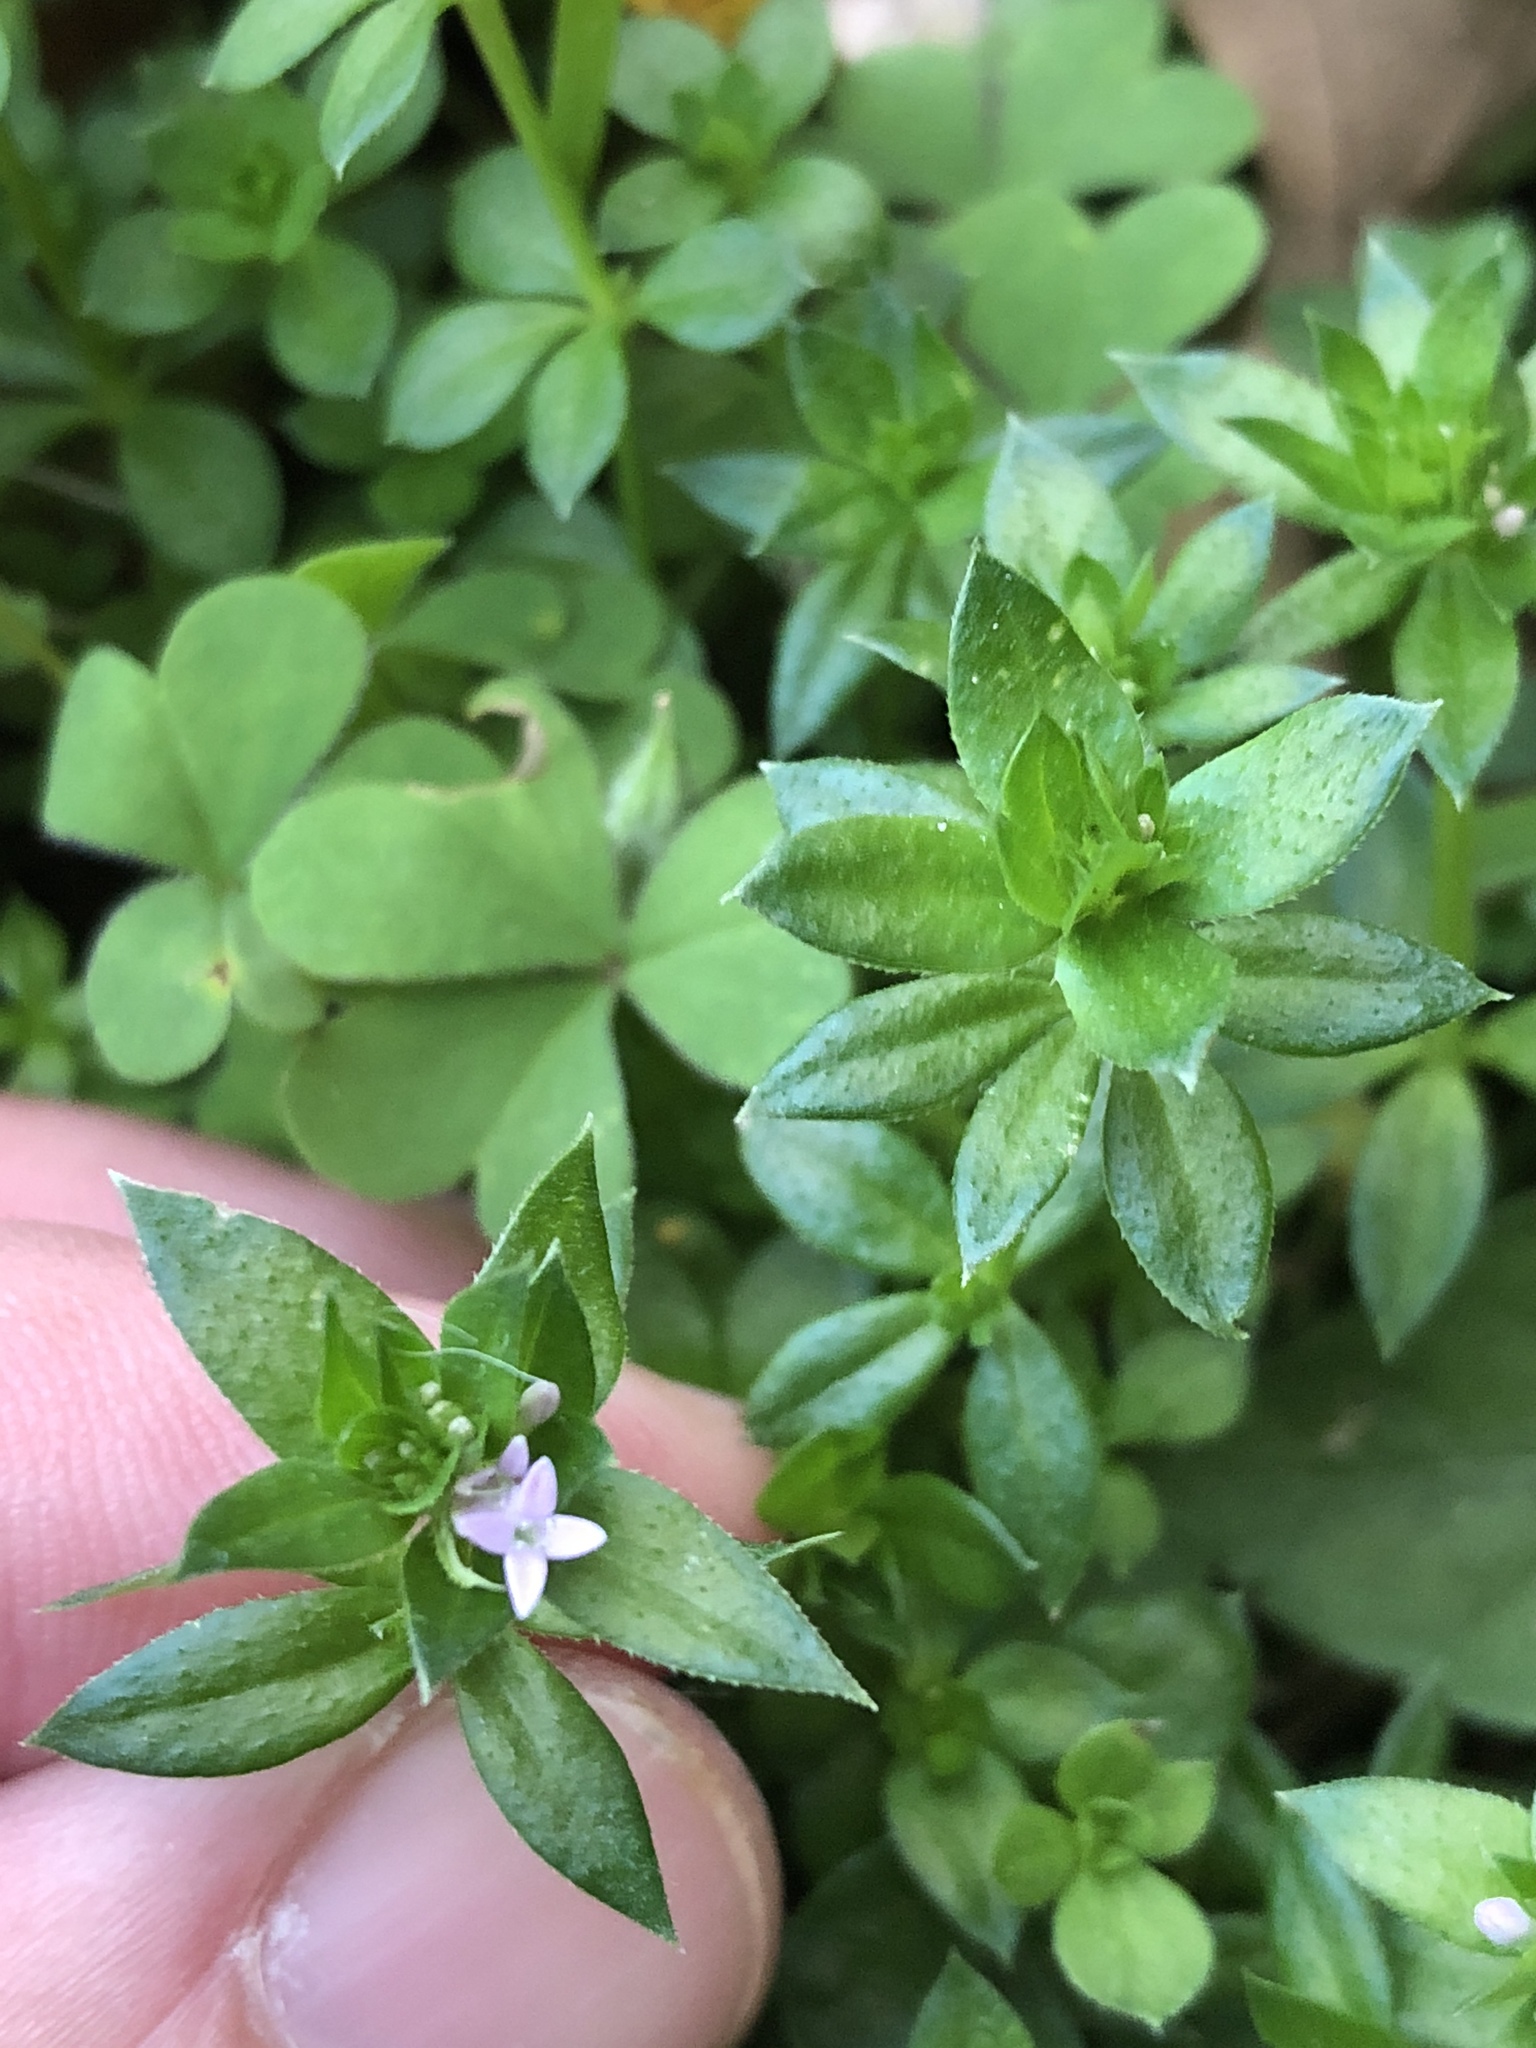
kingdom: Plantae
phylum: Tracheophyta
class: Magnoliopsida
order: Gentianales
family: Rubiaceae
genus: Sherardia
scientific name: Sherardia arvensis
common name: Field madder
